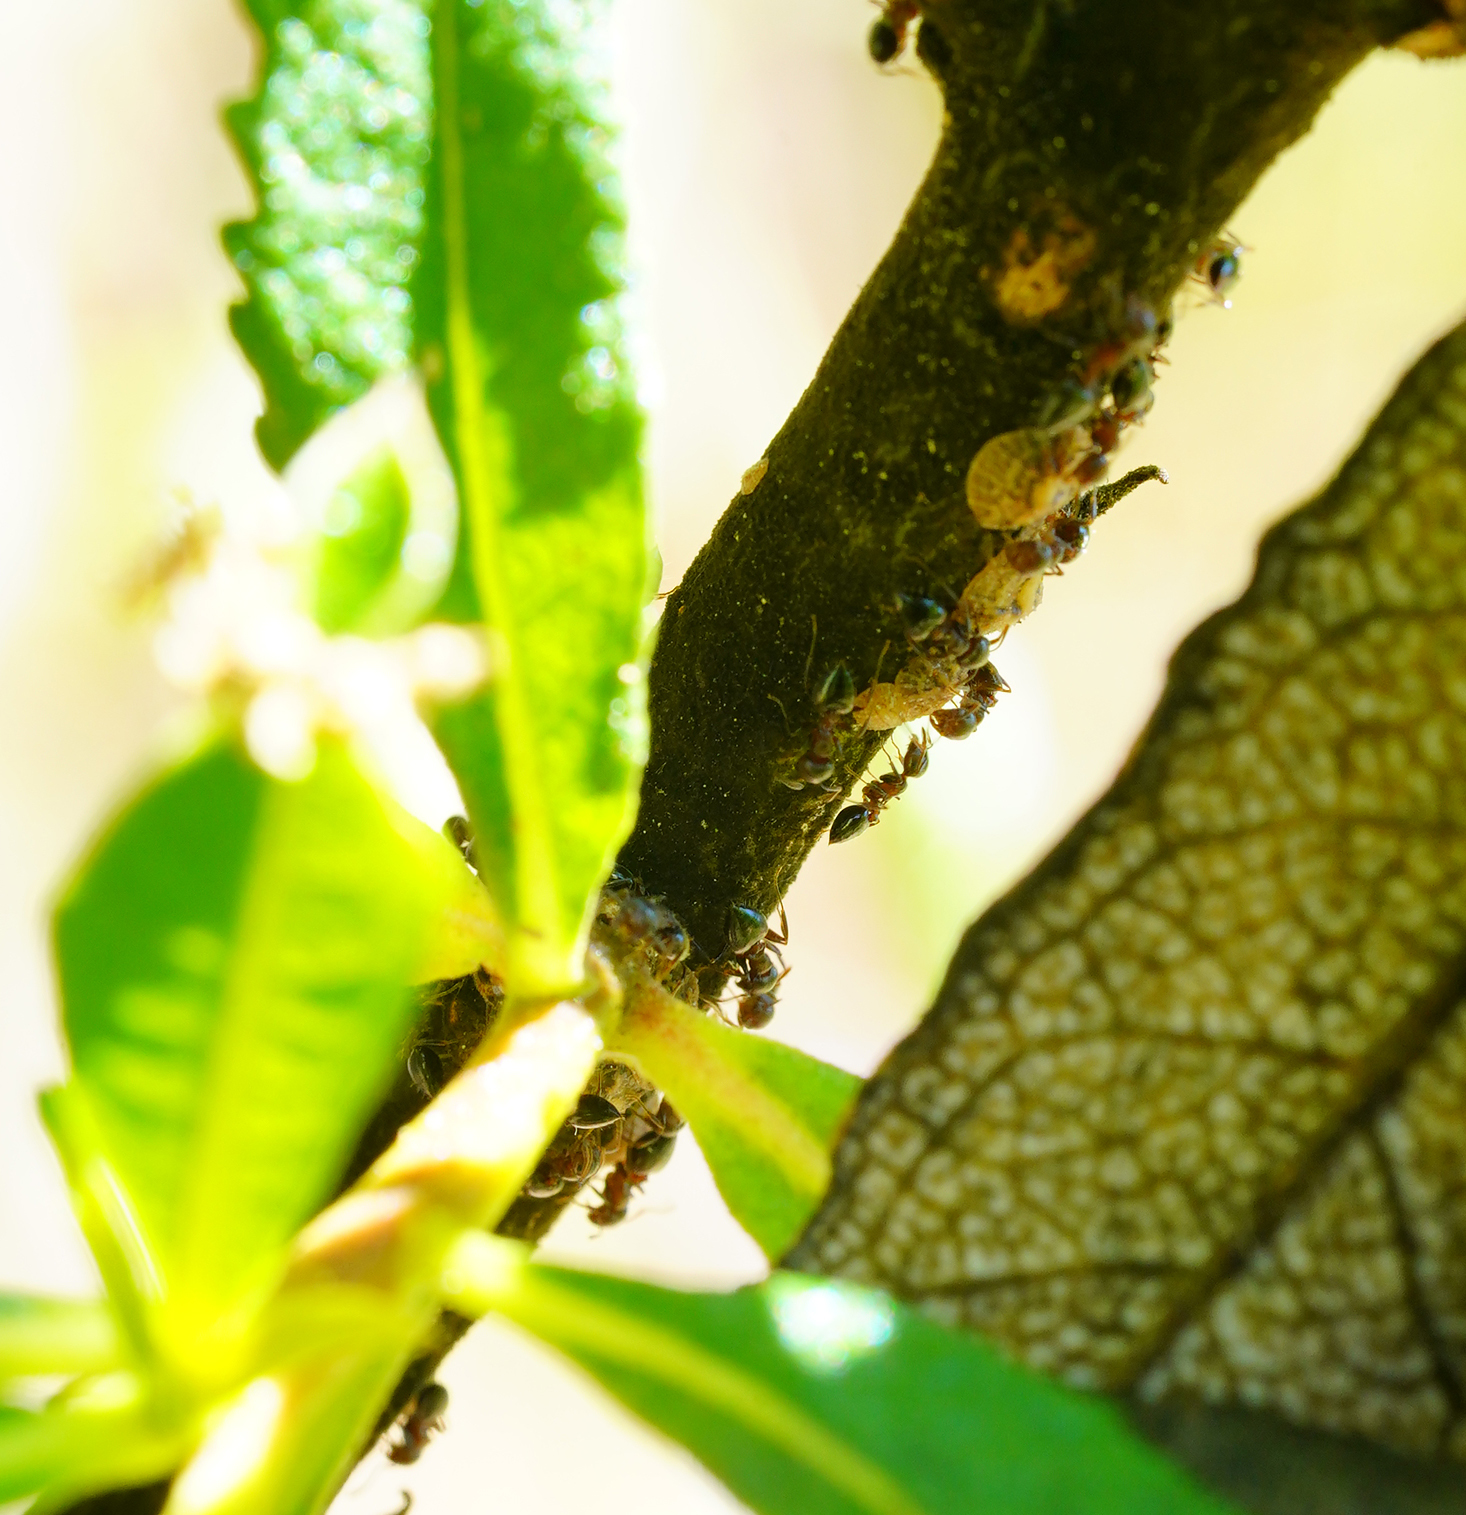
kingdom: Animalia
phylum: Arthropoda
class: Insecta
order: Hymenoptera
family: Formicidae
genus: Crematogaster
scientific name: Crematogaster coarctata
